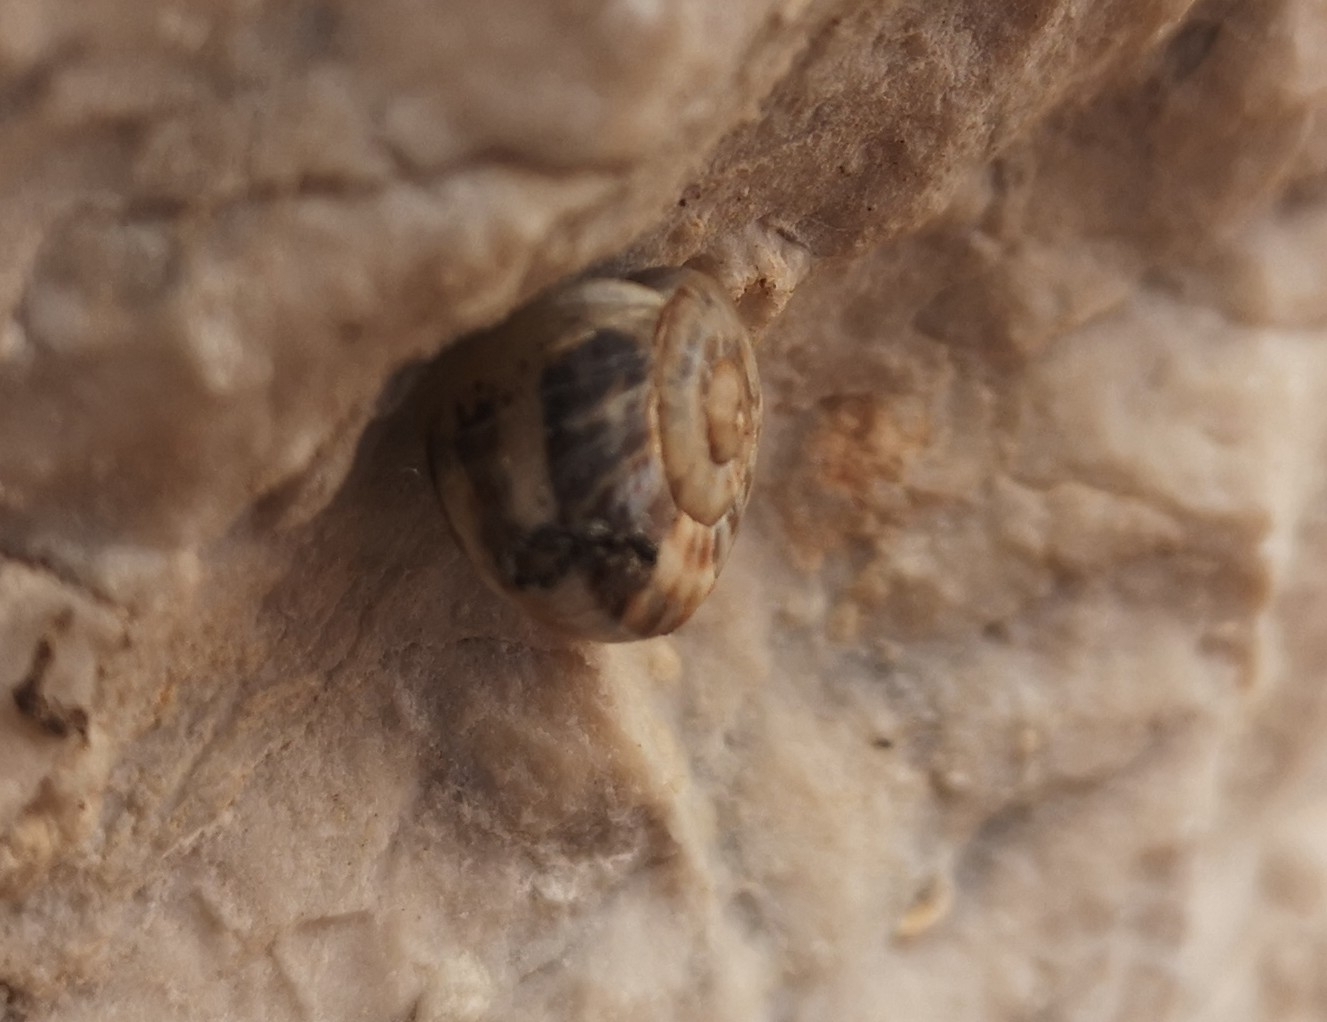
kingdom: Animalia
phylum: Mollusca
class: Gastropoda
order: Stylommatophora
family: Helicidae
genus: Eobania
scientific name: Eobania vermiculata
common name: Chocolateband snail
